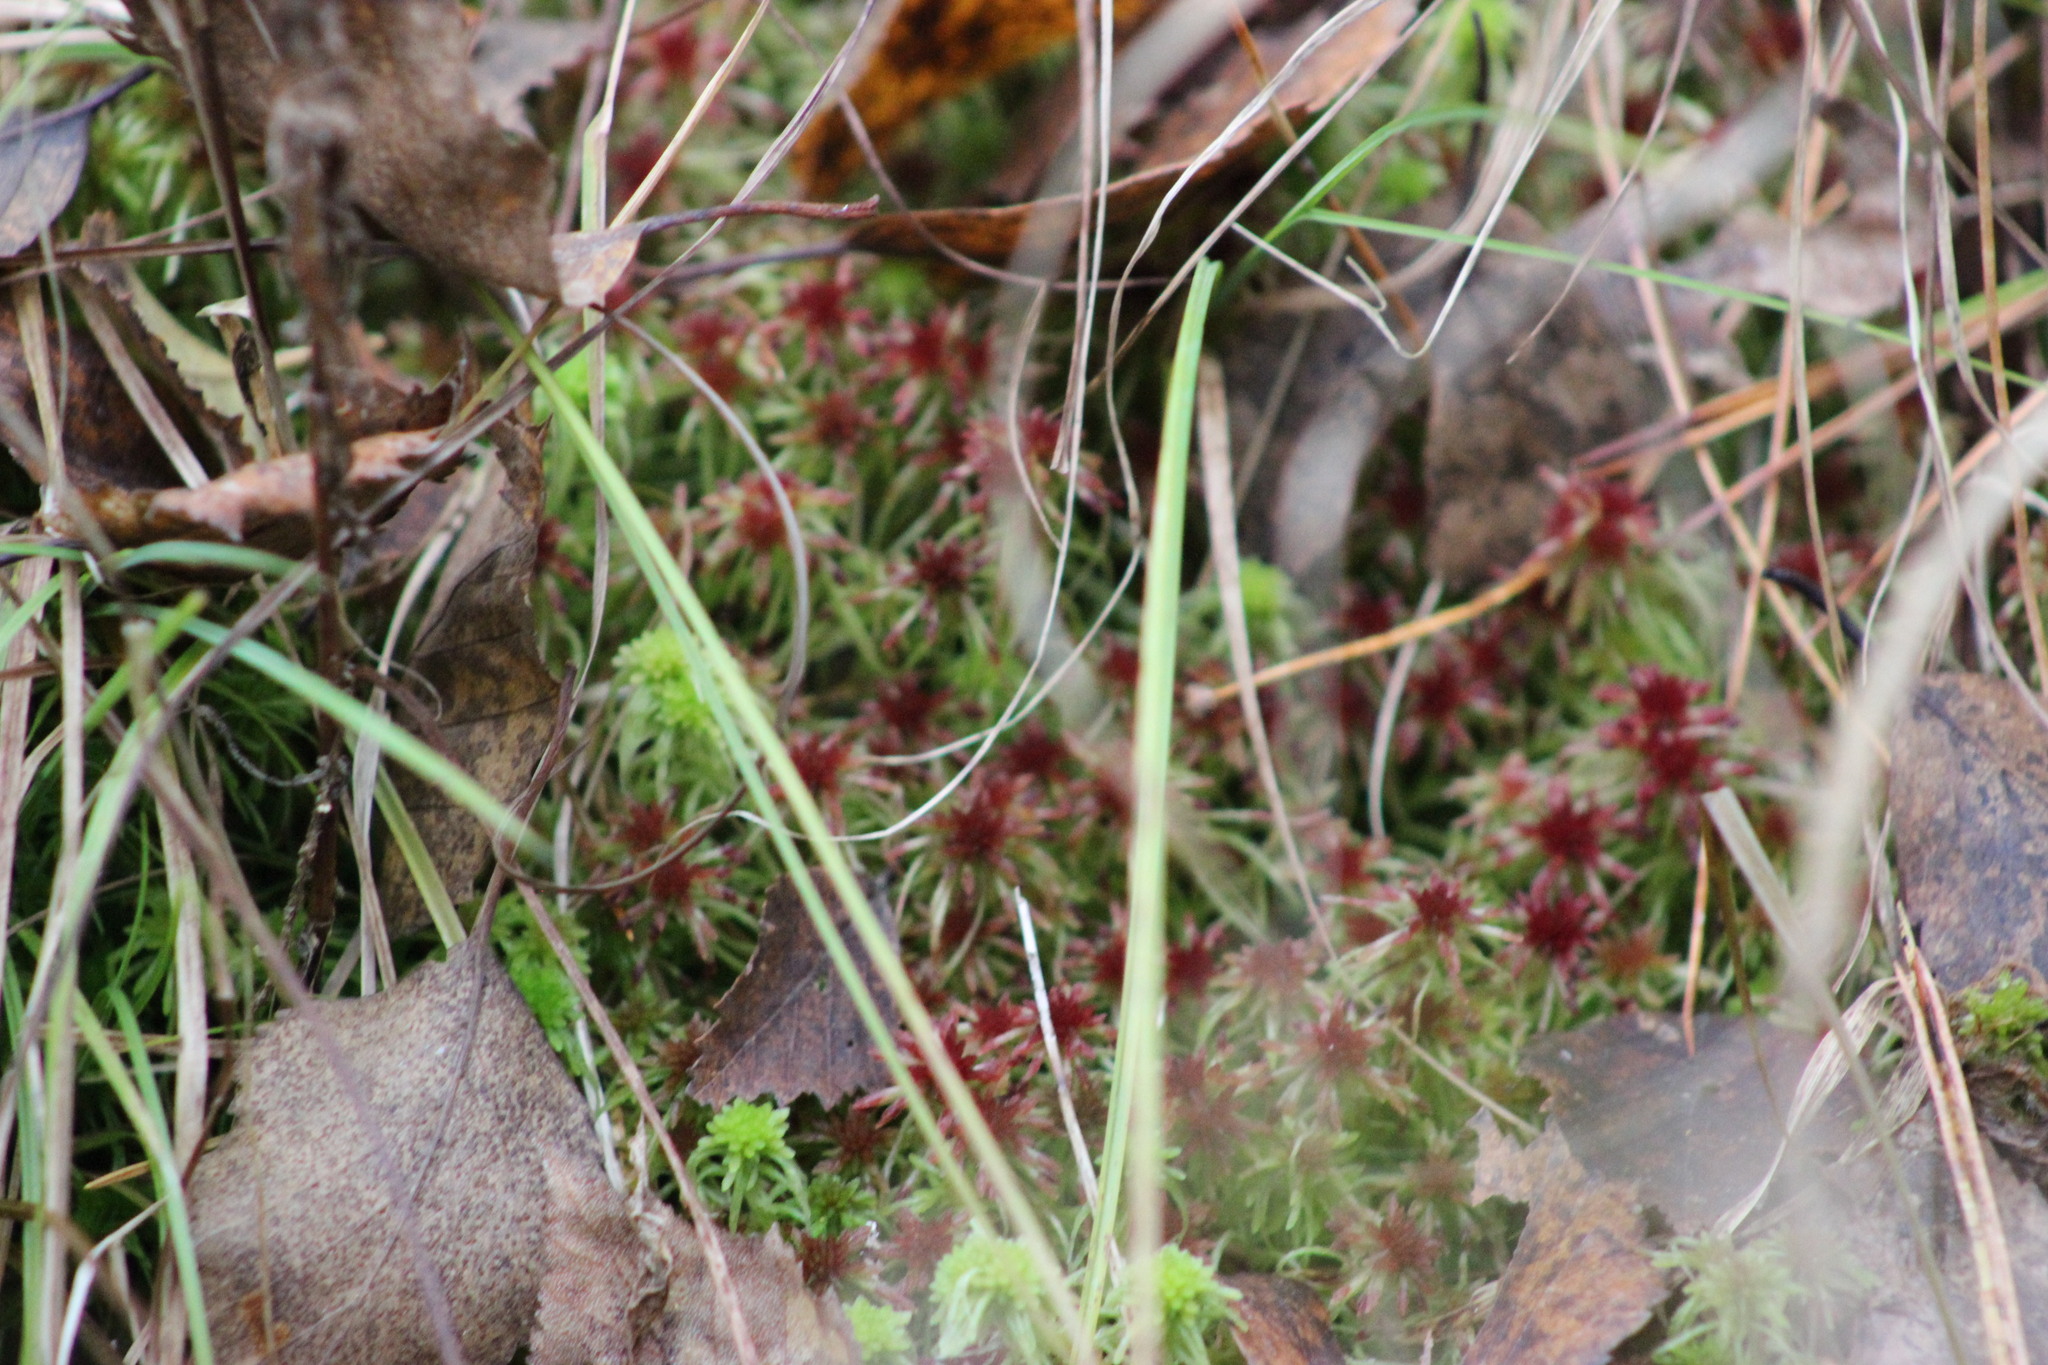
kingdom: Plantae
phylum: Bryophyta
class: Sphagnopsida
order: Sphagnales
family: Sphagnaceae
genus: Sphagnum
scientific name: Sphagnum russowii
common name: Russow's peat moss
